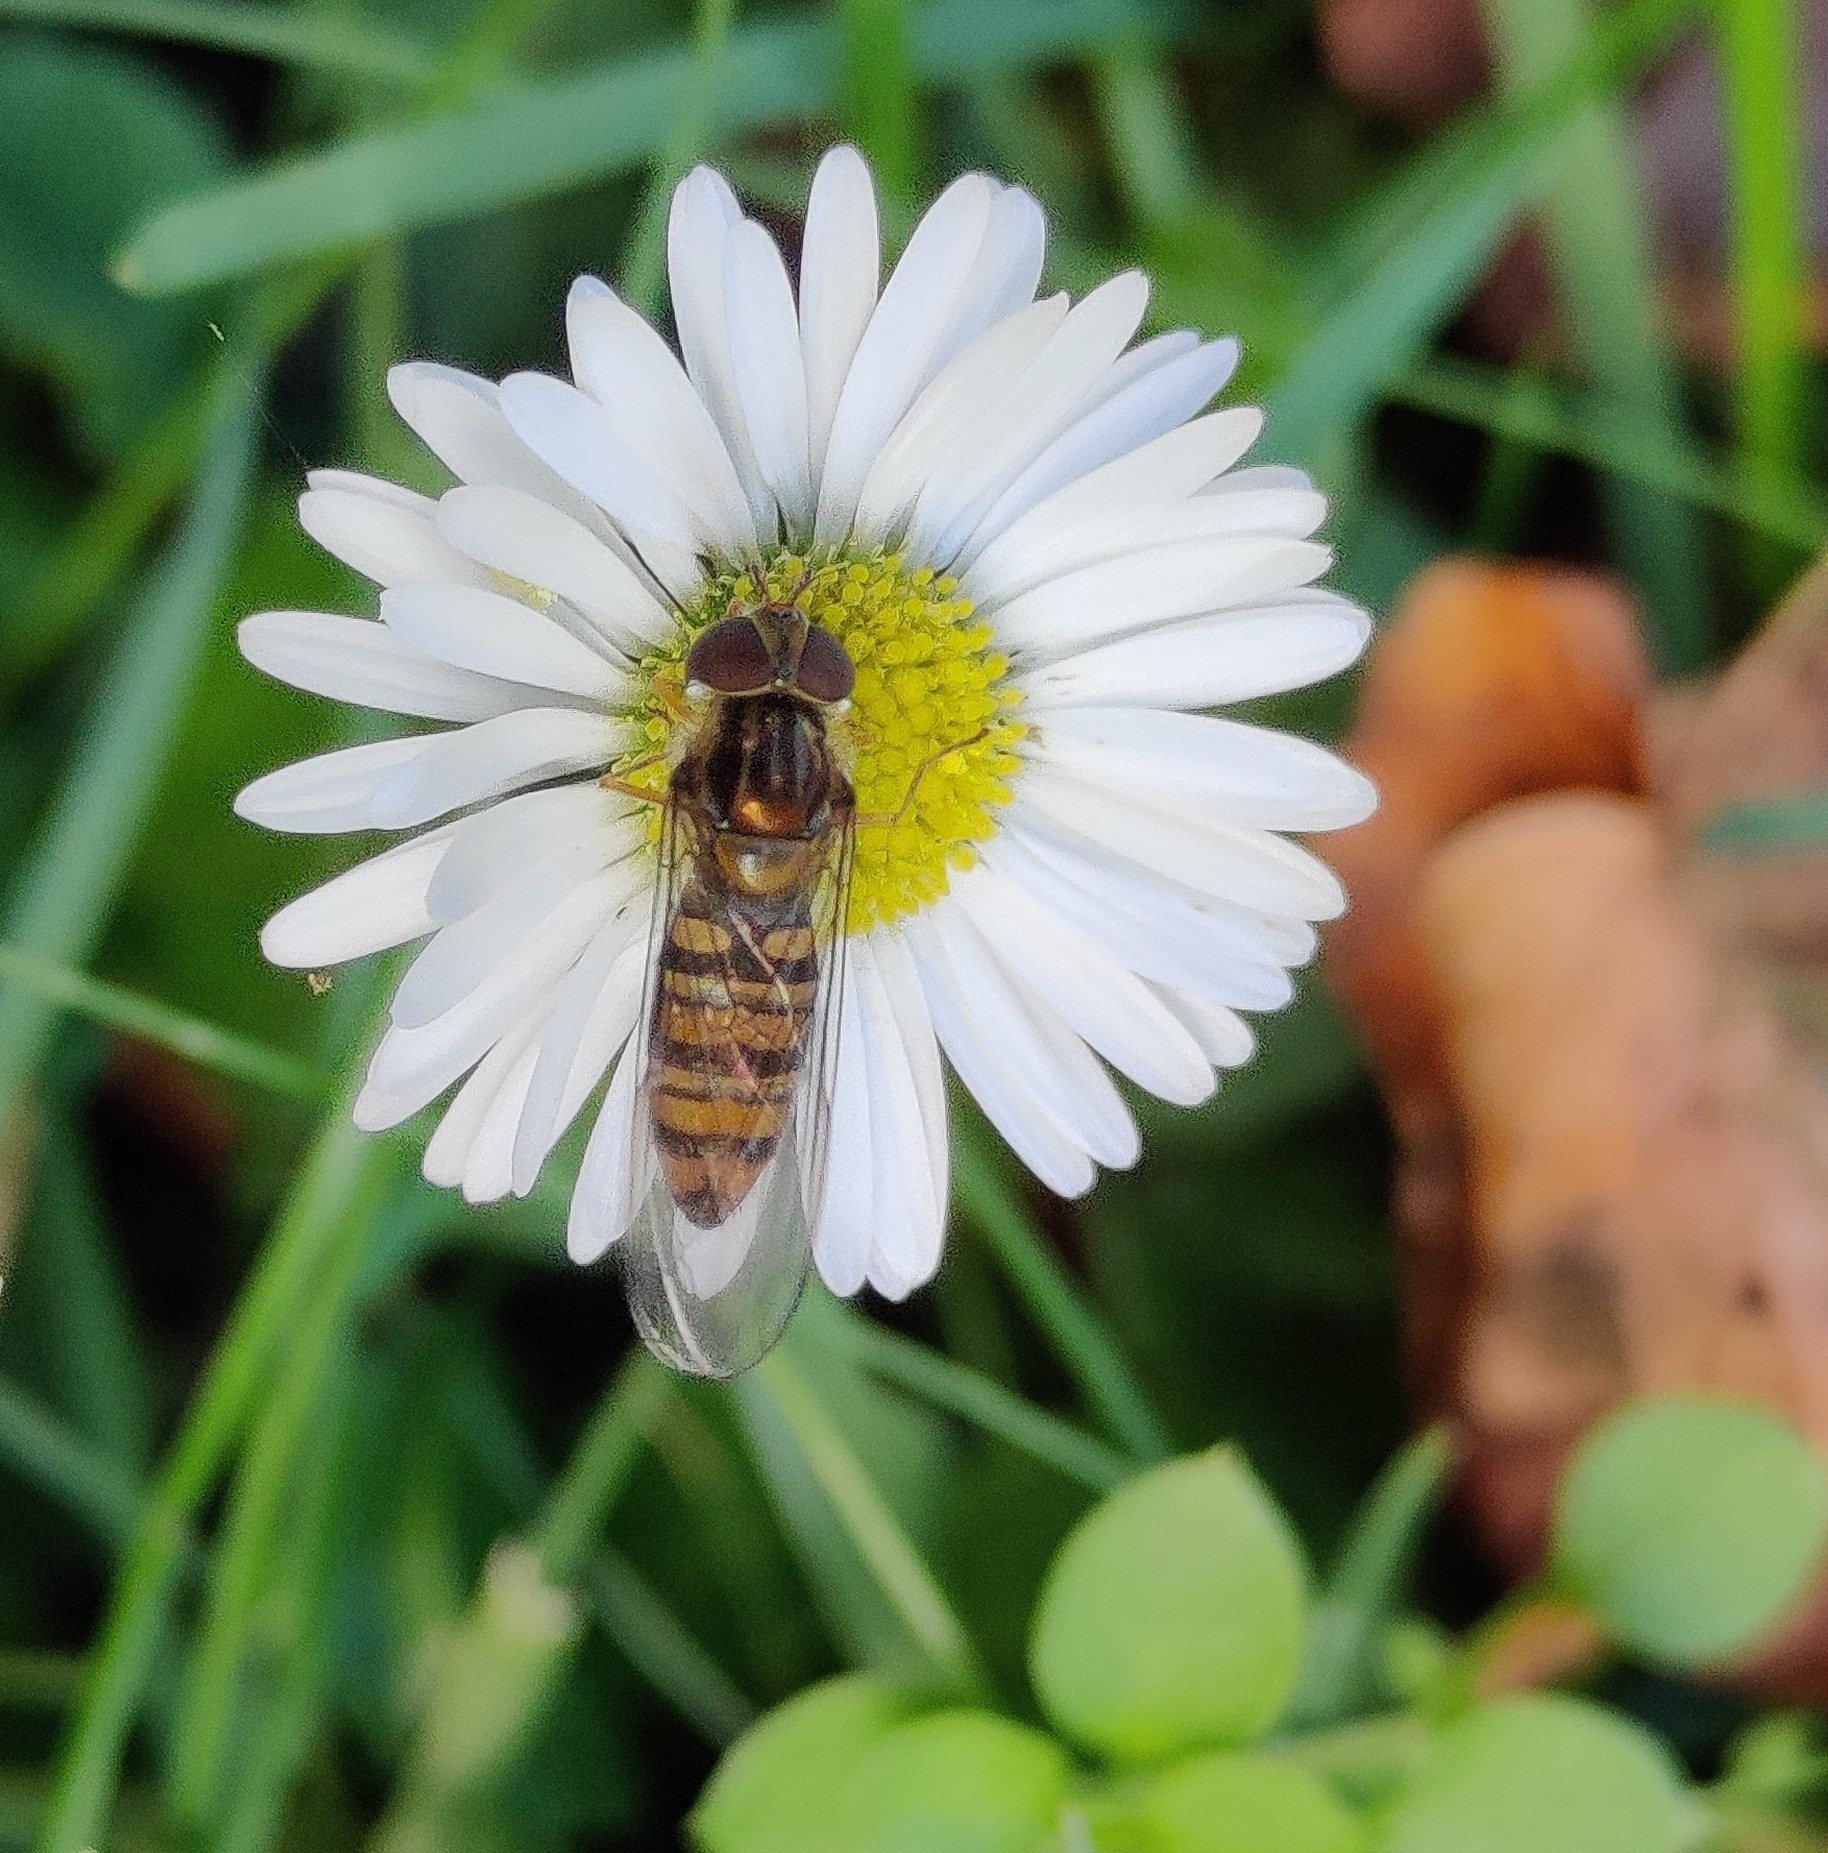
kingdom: Animalia
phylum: Arthropoda
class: Insecta
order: Diptera
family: Syrphidae
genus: Episyrphus
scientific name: Episyrphus balteatus
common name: Marmalade hoverfly
